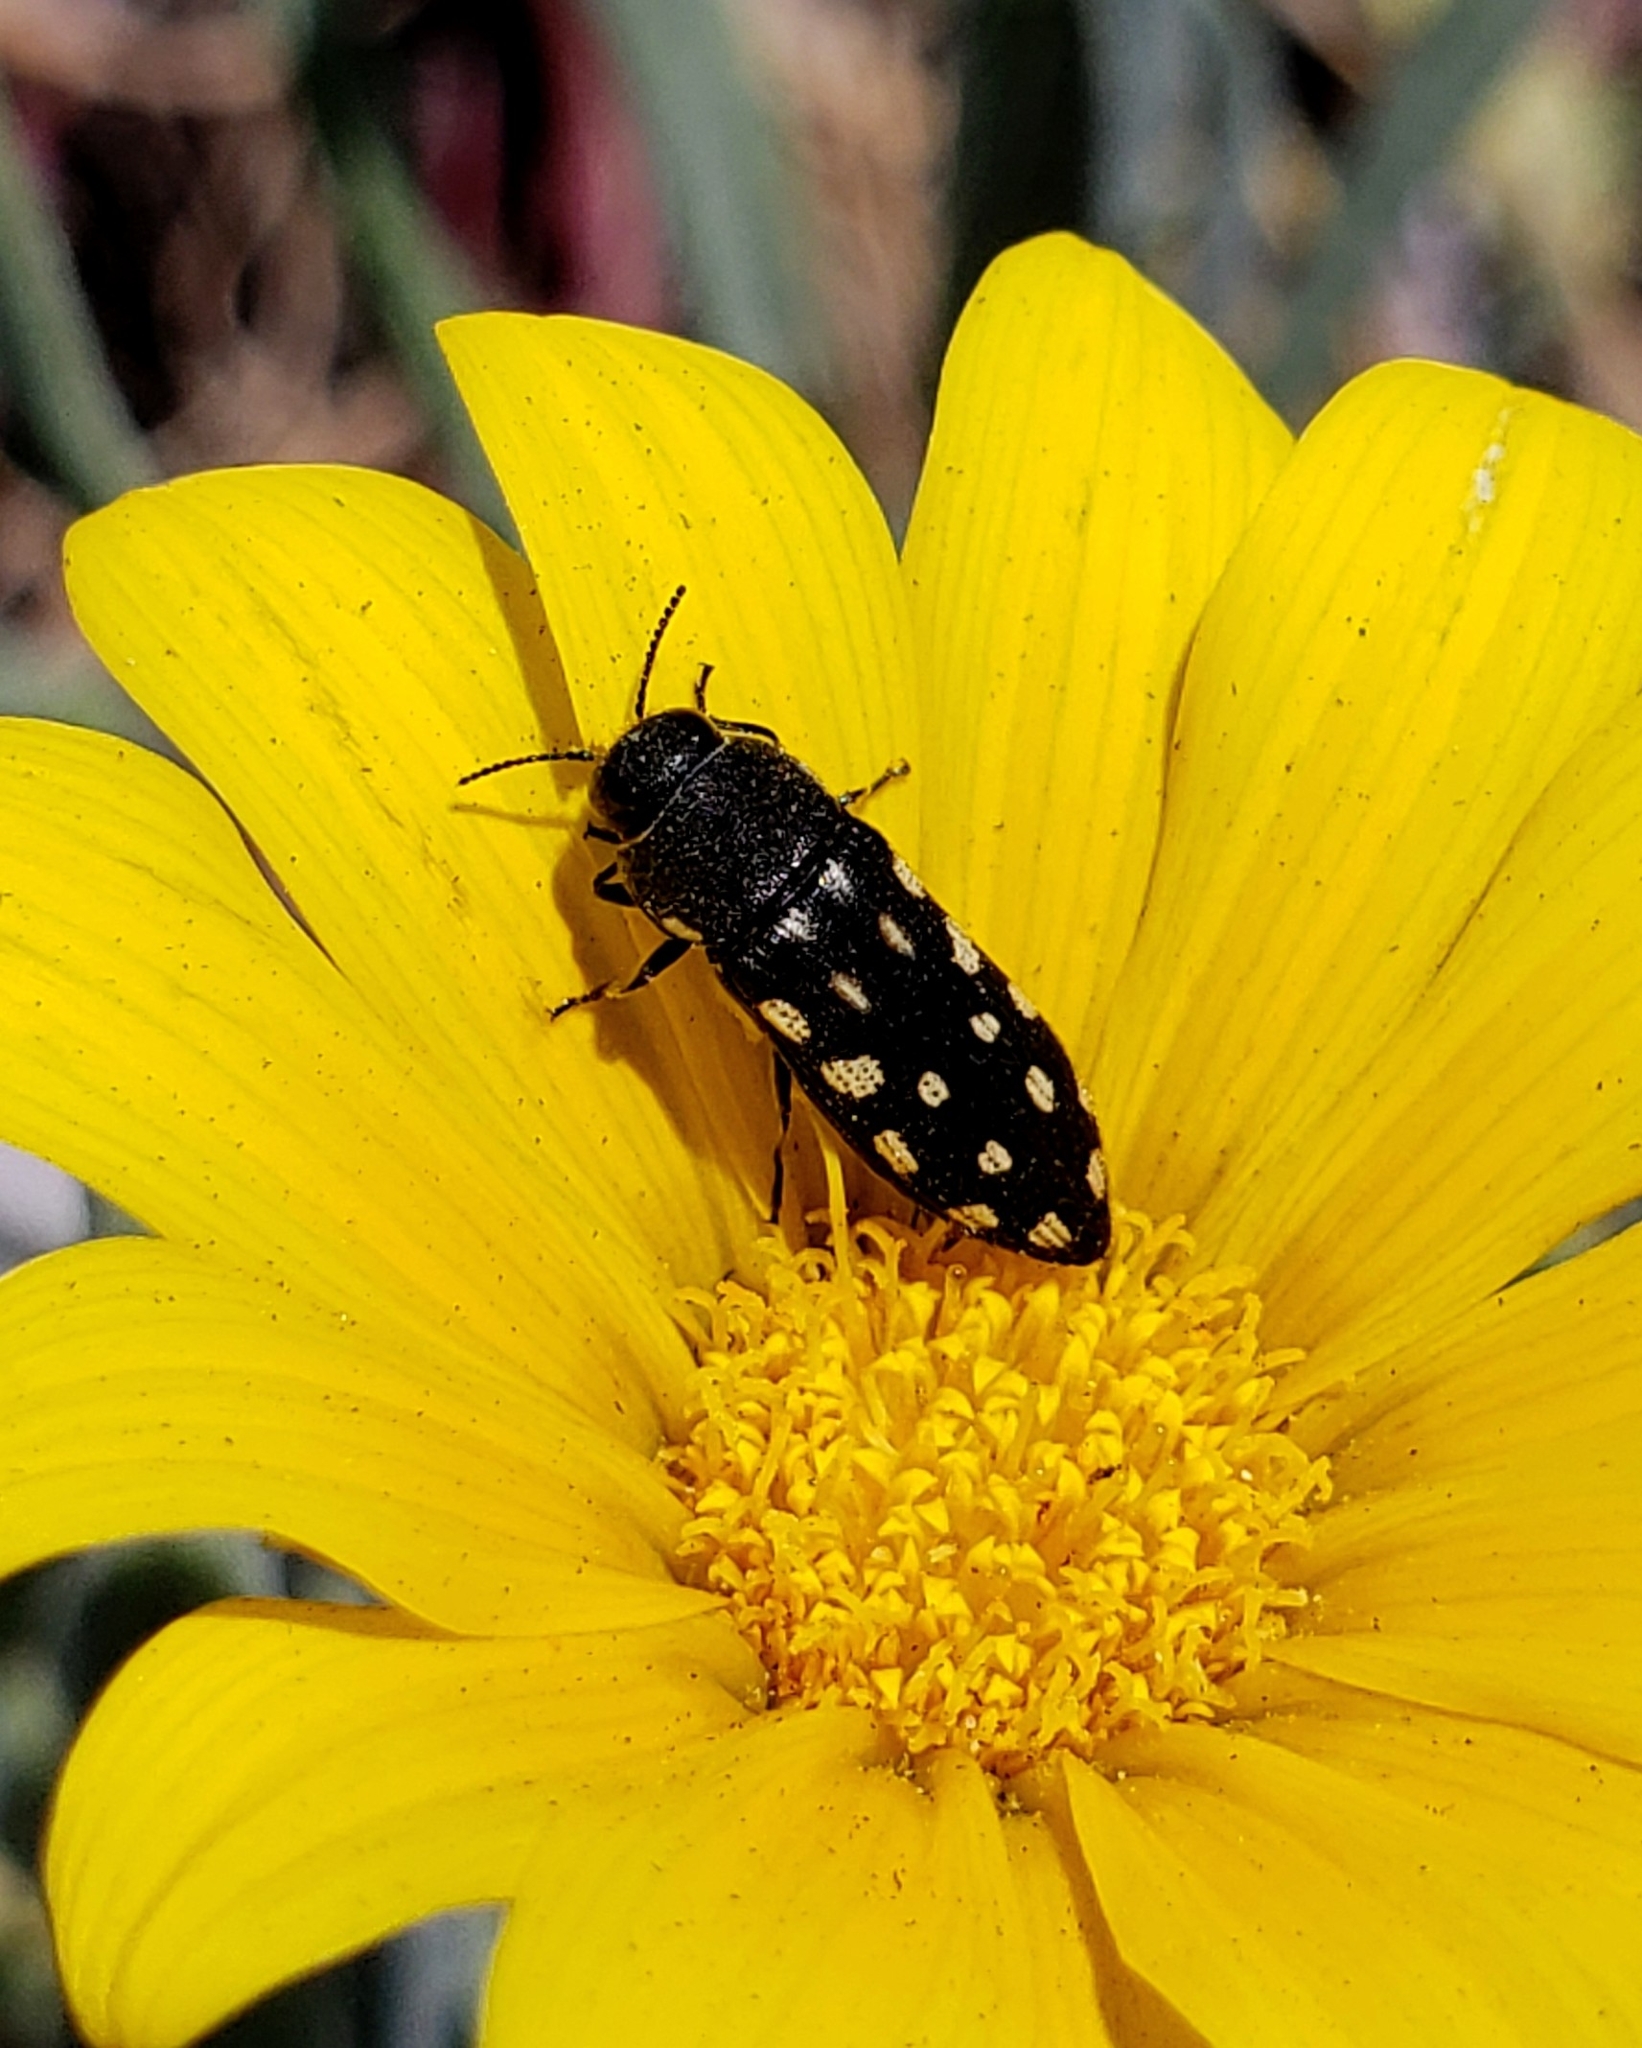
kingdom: Animalia
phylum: Arthropoda
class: Insecta
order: Coleoptera
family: Buprestidae
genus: Acmaeodera
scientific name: Acmaeodera degener
